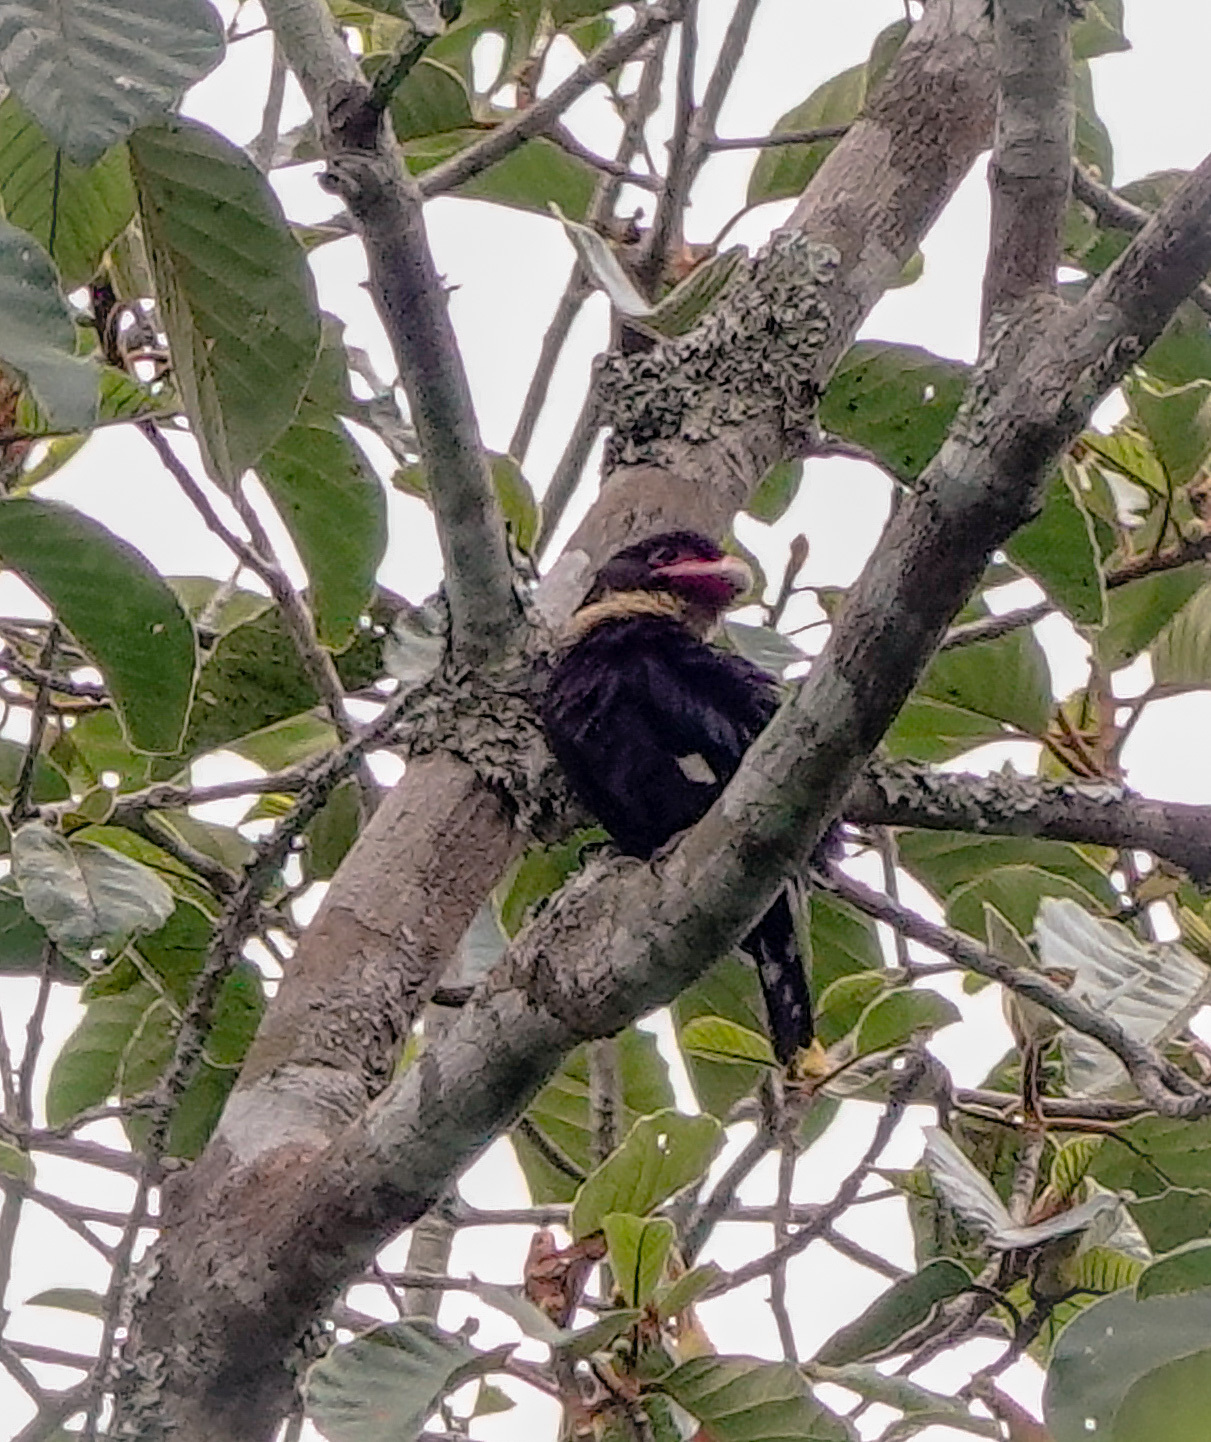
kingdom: Animalia
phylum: Chordata
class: Aves
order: Passeriformes
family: Eurylaimidae
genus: Corydon
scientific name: Corydon sumatranus
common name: Dusky broadbill
